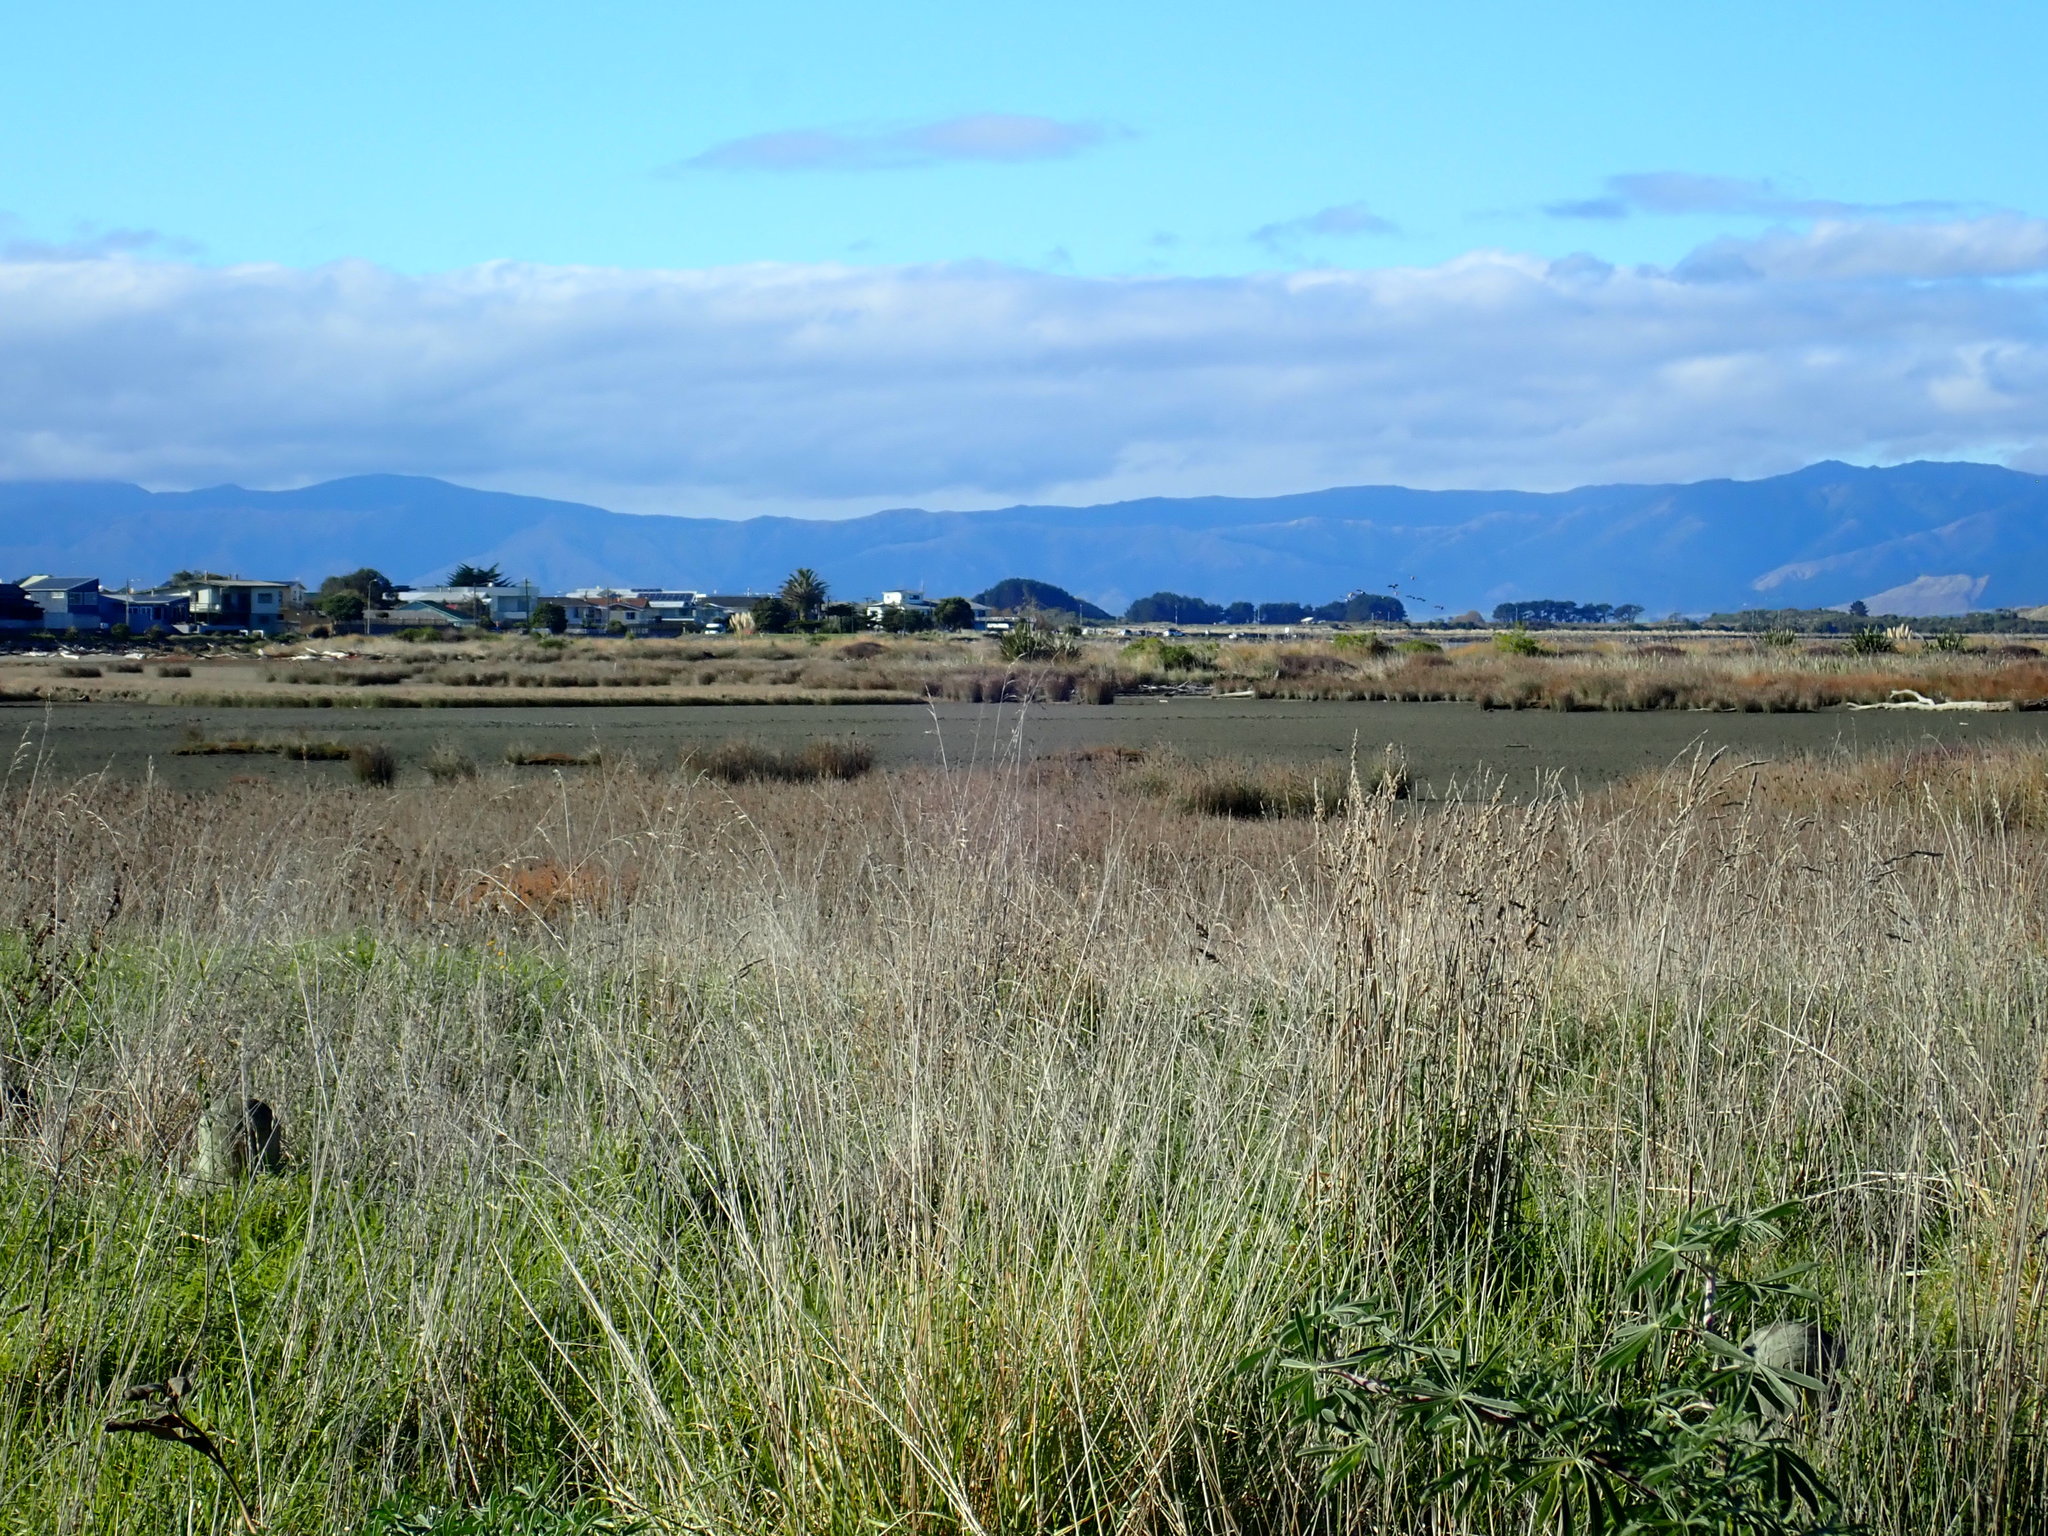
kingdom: Animalia
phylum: Chordata
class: Aves
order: Anseriformes
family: Anatidae
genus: Branta
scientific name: Branta canadensis
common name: Canada goose
